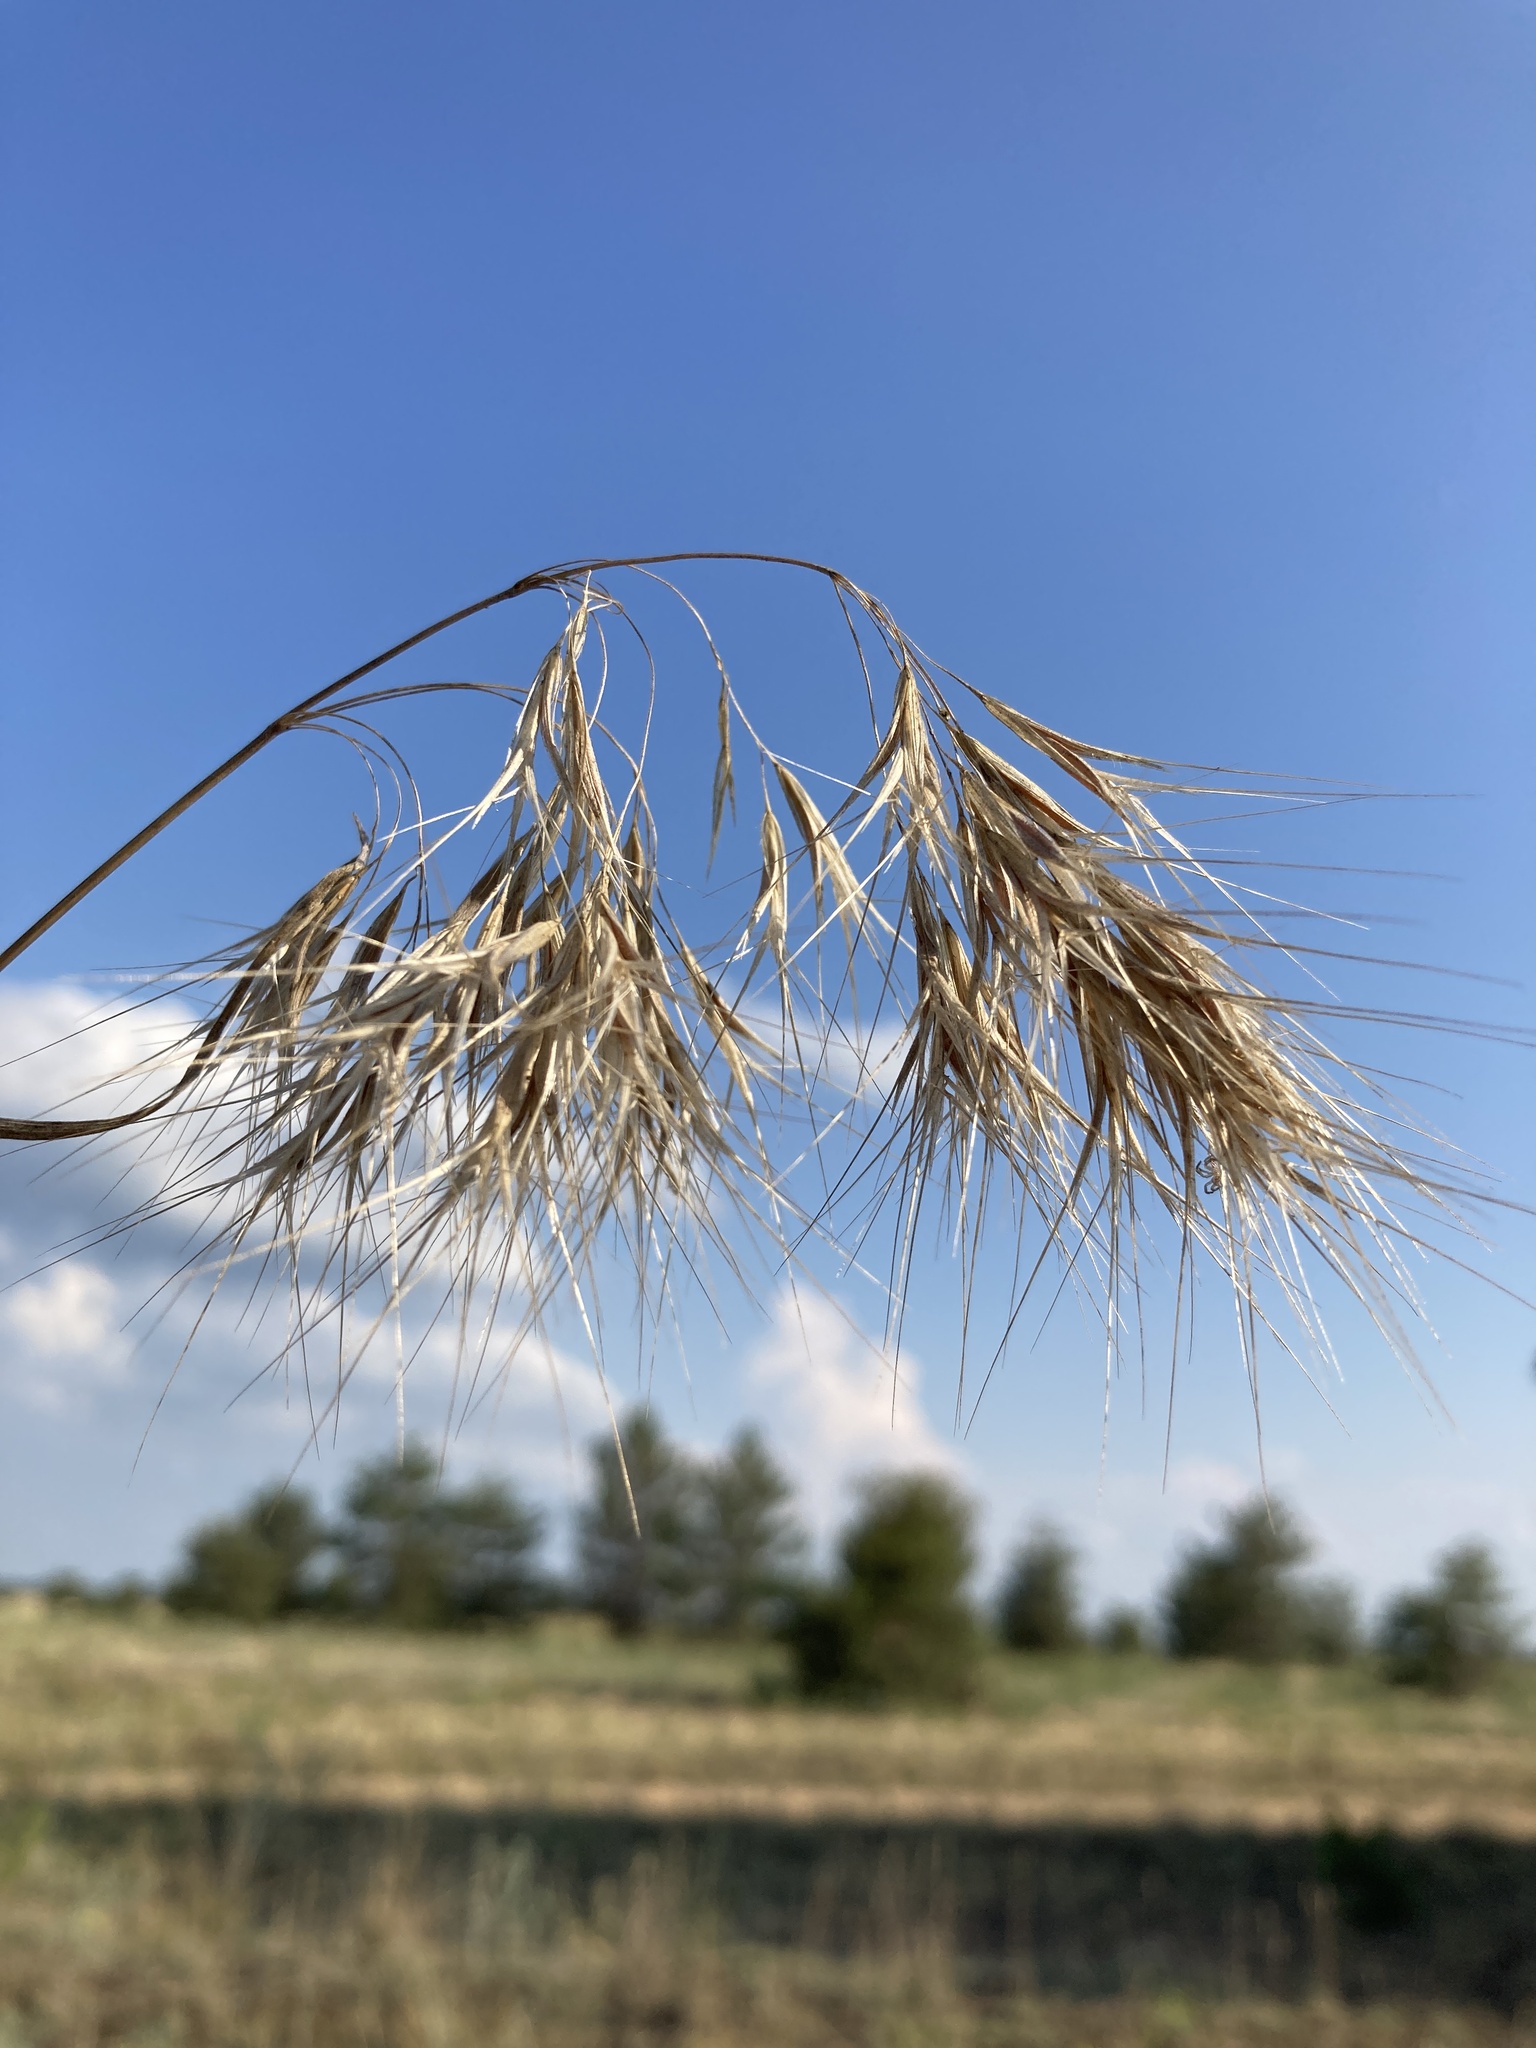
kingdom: Plantae
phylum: Tracheophyta
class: Liliopsida
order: Poales
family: Poaceae
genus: Bromus
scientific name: Bromus tectorum
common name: Cheatgrass
